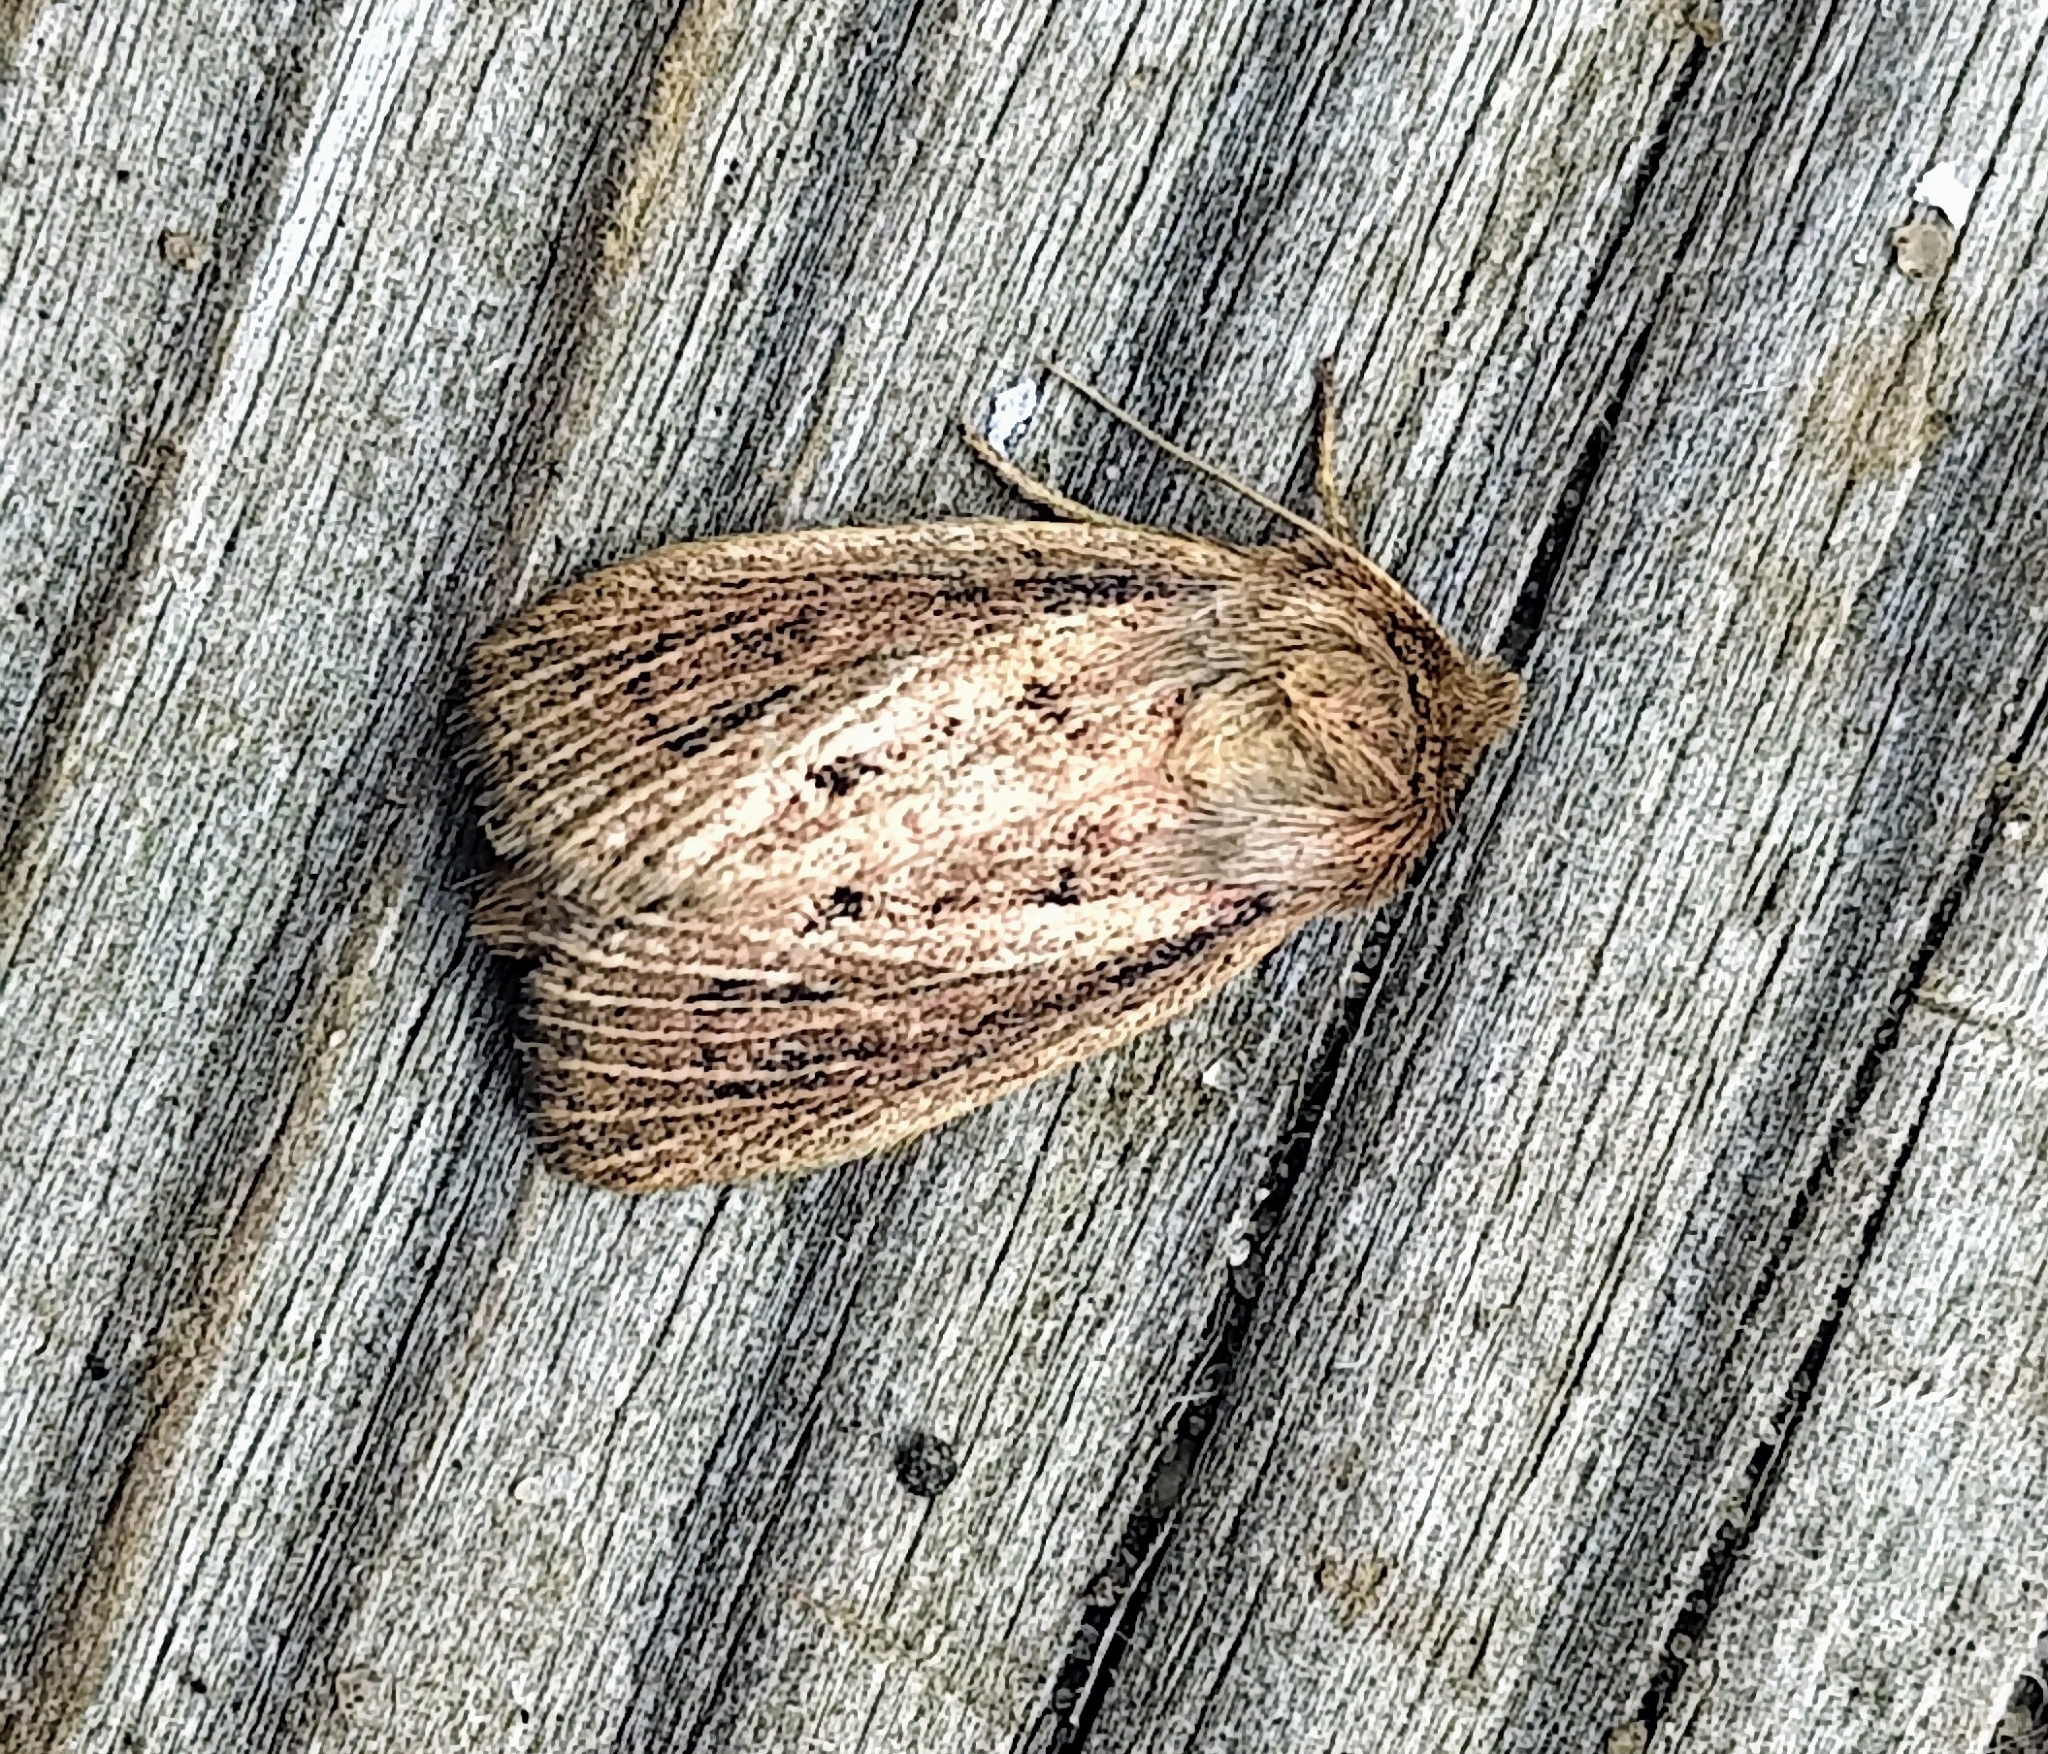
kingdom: Animalia
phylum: Arthropoda
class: Insecta
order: Lepidoptera
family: Noctuidae
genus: Hypocoena
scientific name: Hypocoena inquinata
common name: Tufted sedge moth
